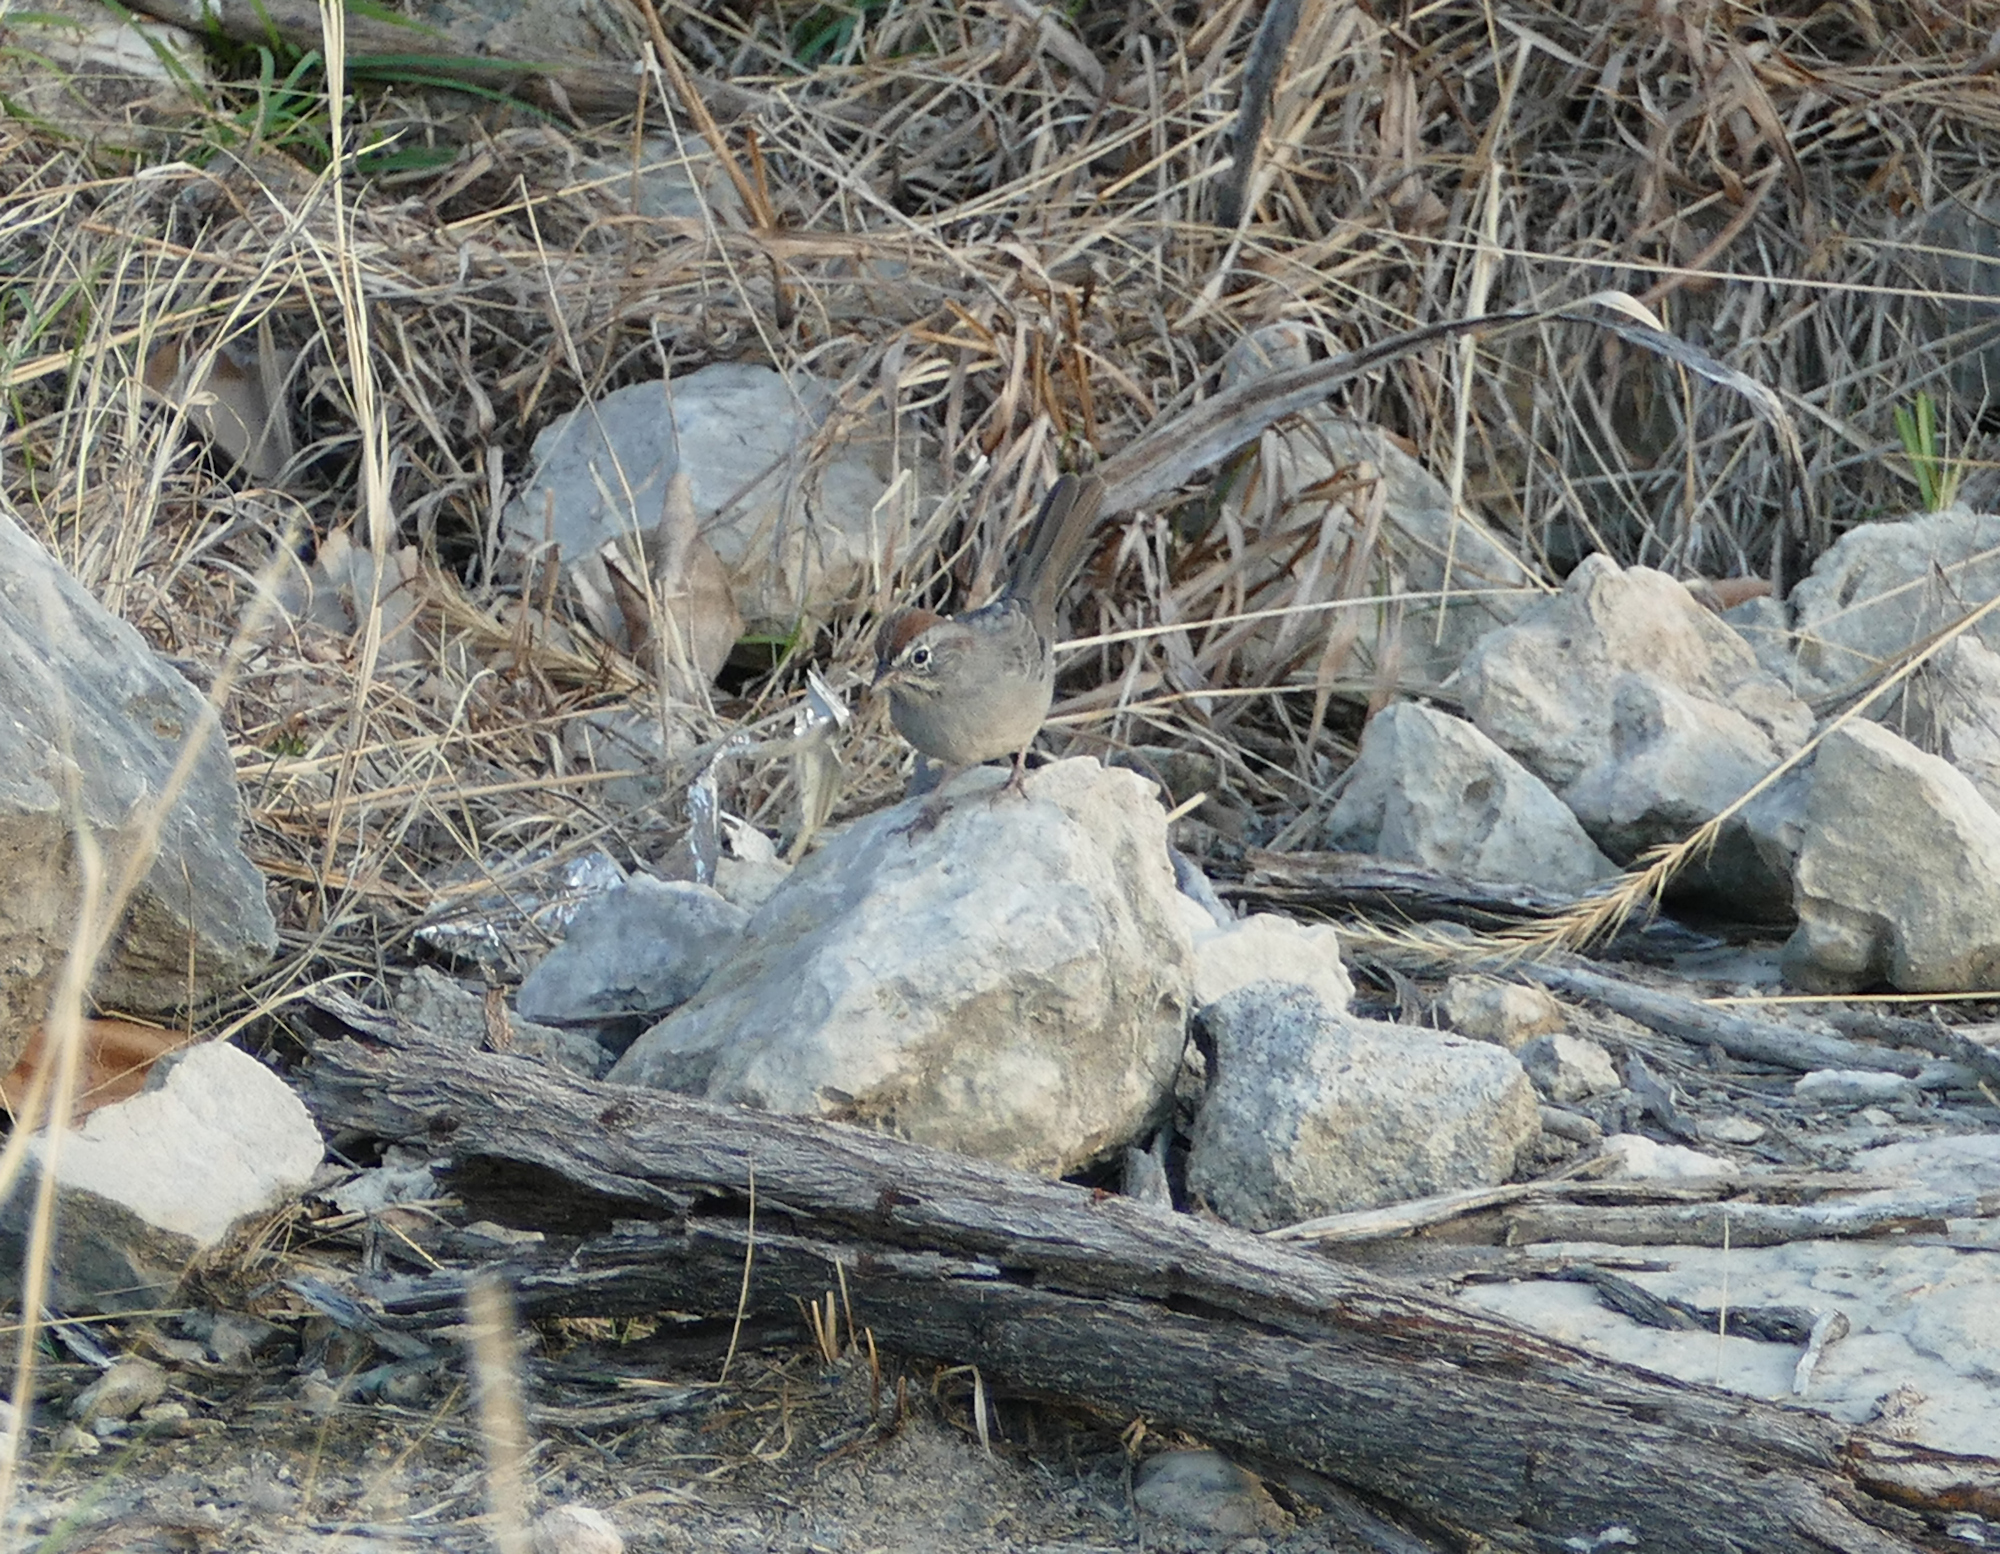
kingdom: Animalia
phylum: Chordata
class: Aves
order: Passeriformes
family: Passerellidae
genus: Aimophila
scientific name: Aimophila ruficeps
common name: Rufous-crowned sparrow
